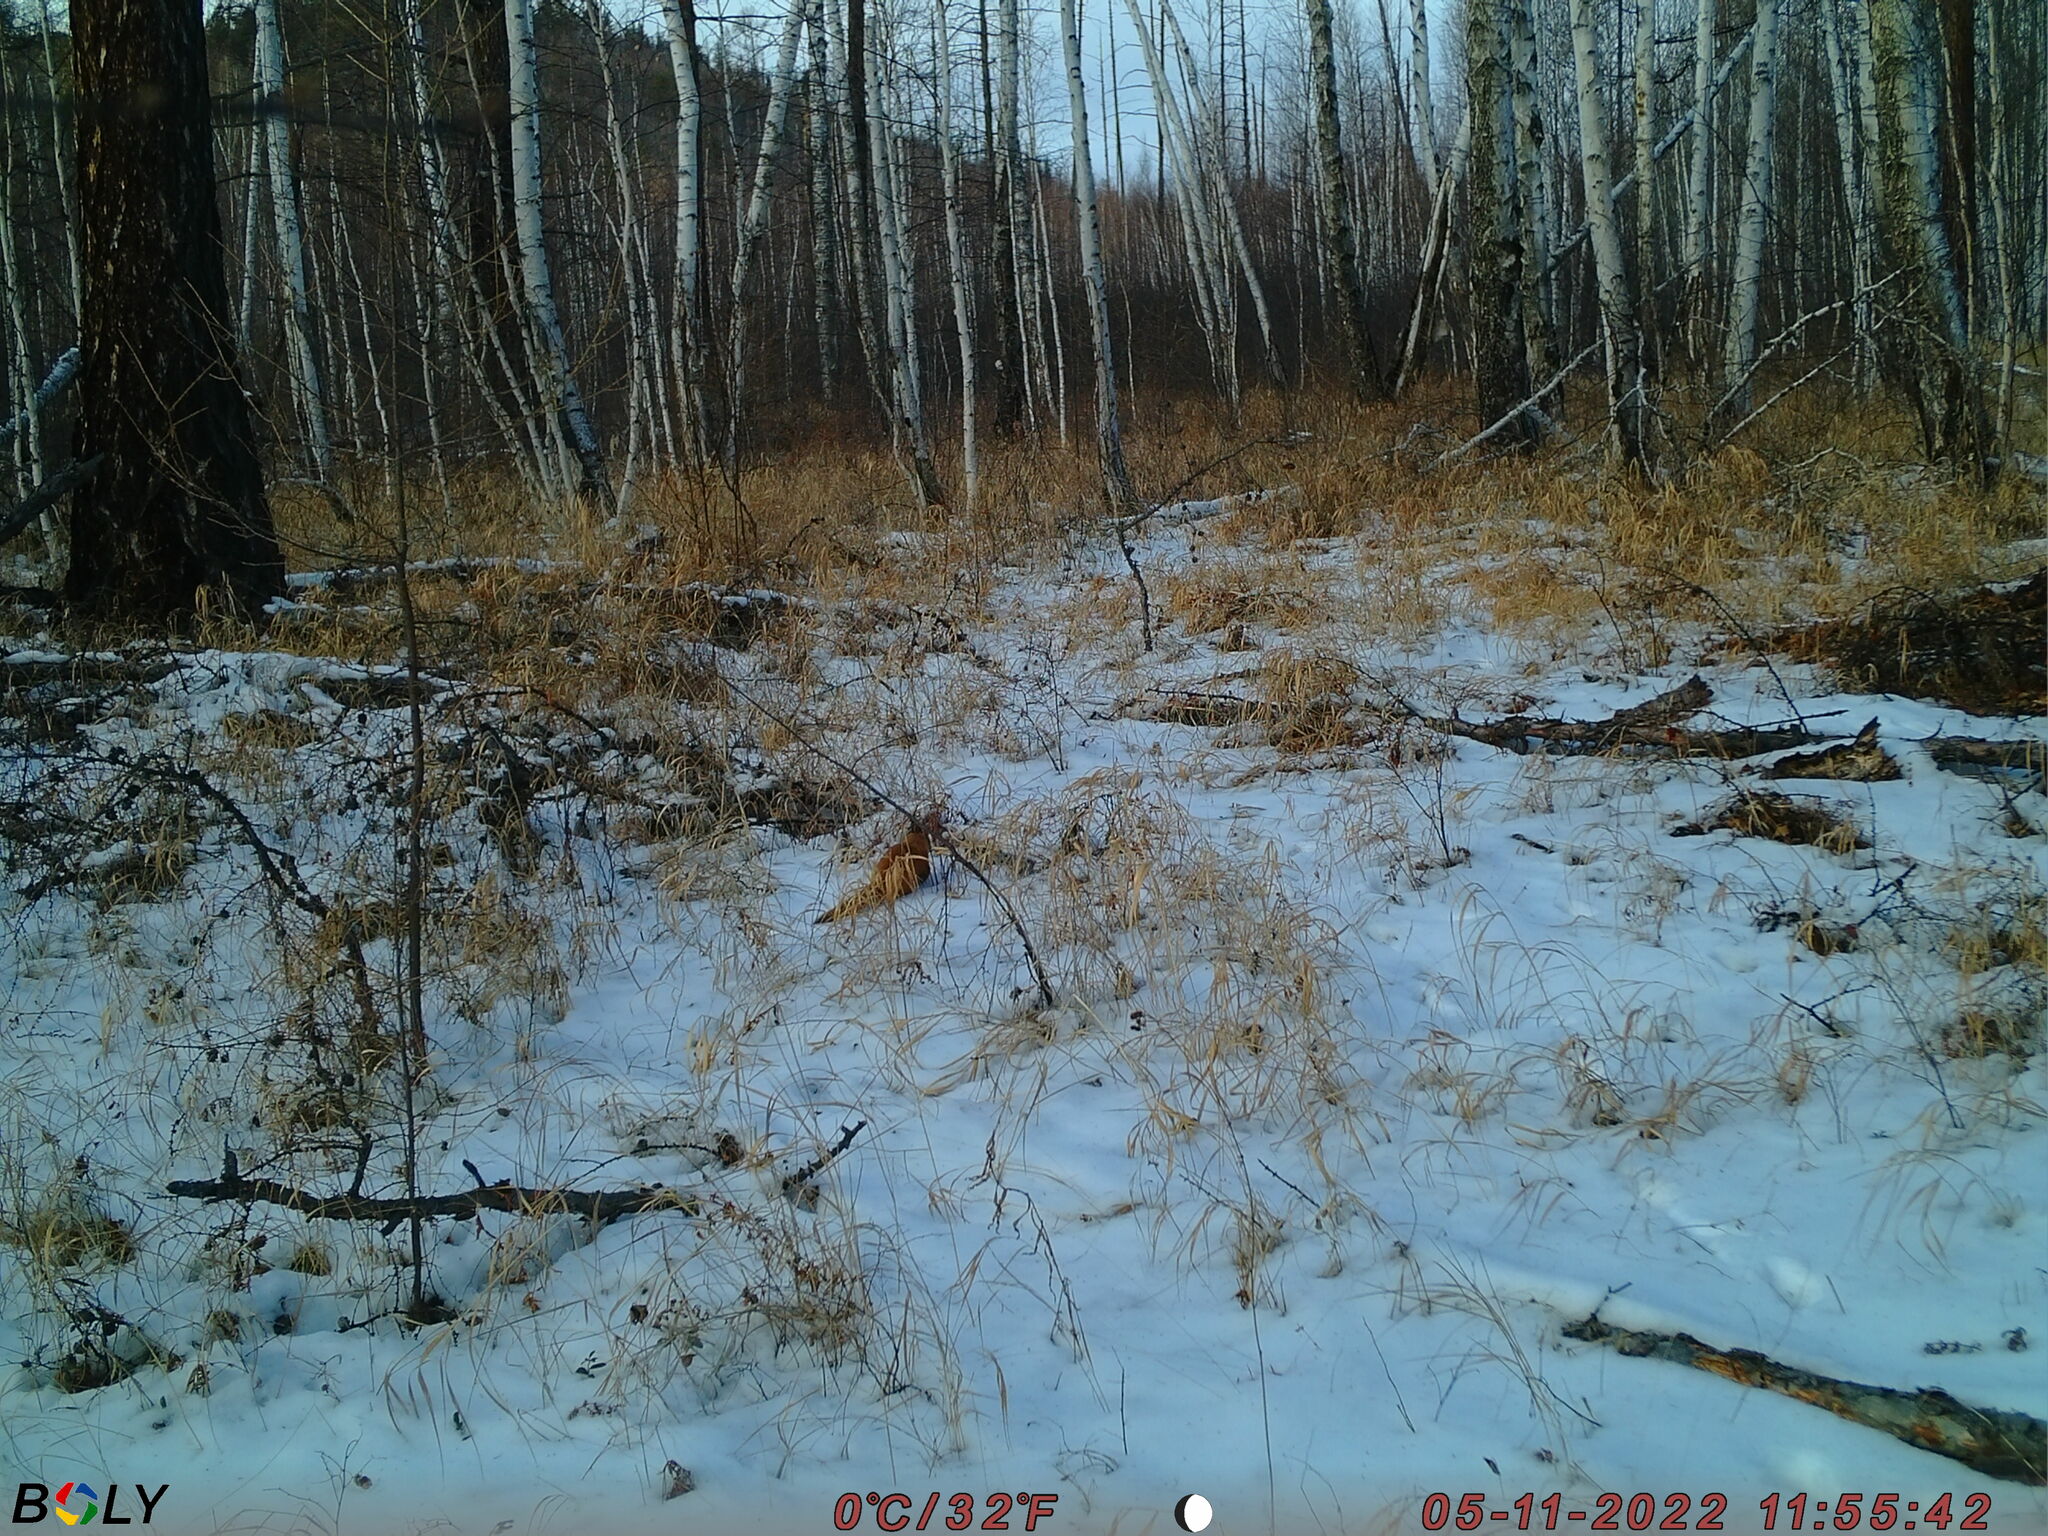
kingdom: Animalia
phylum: Chordata
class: Mammalia
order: Carnivora
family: Mustelidae
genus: Mustela
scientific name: Mustela sibirica
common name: Siberian weasel
